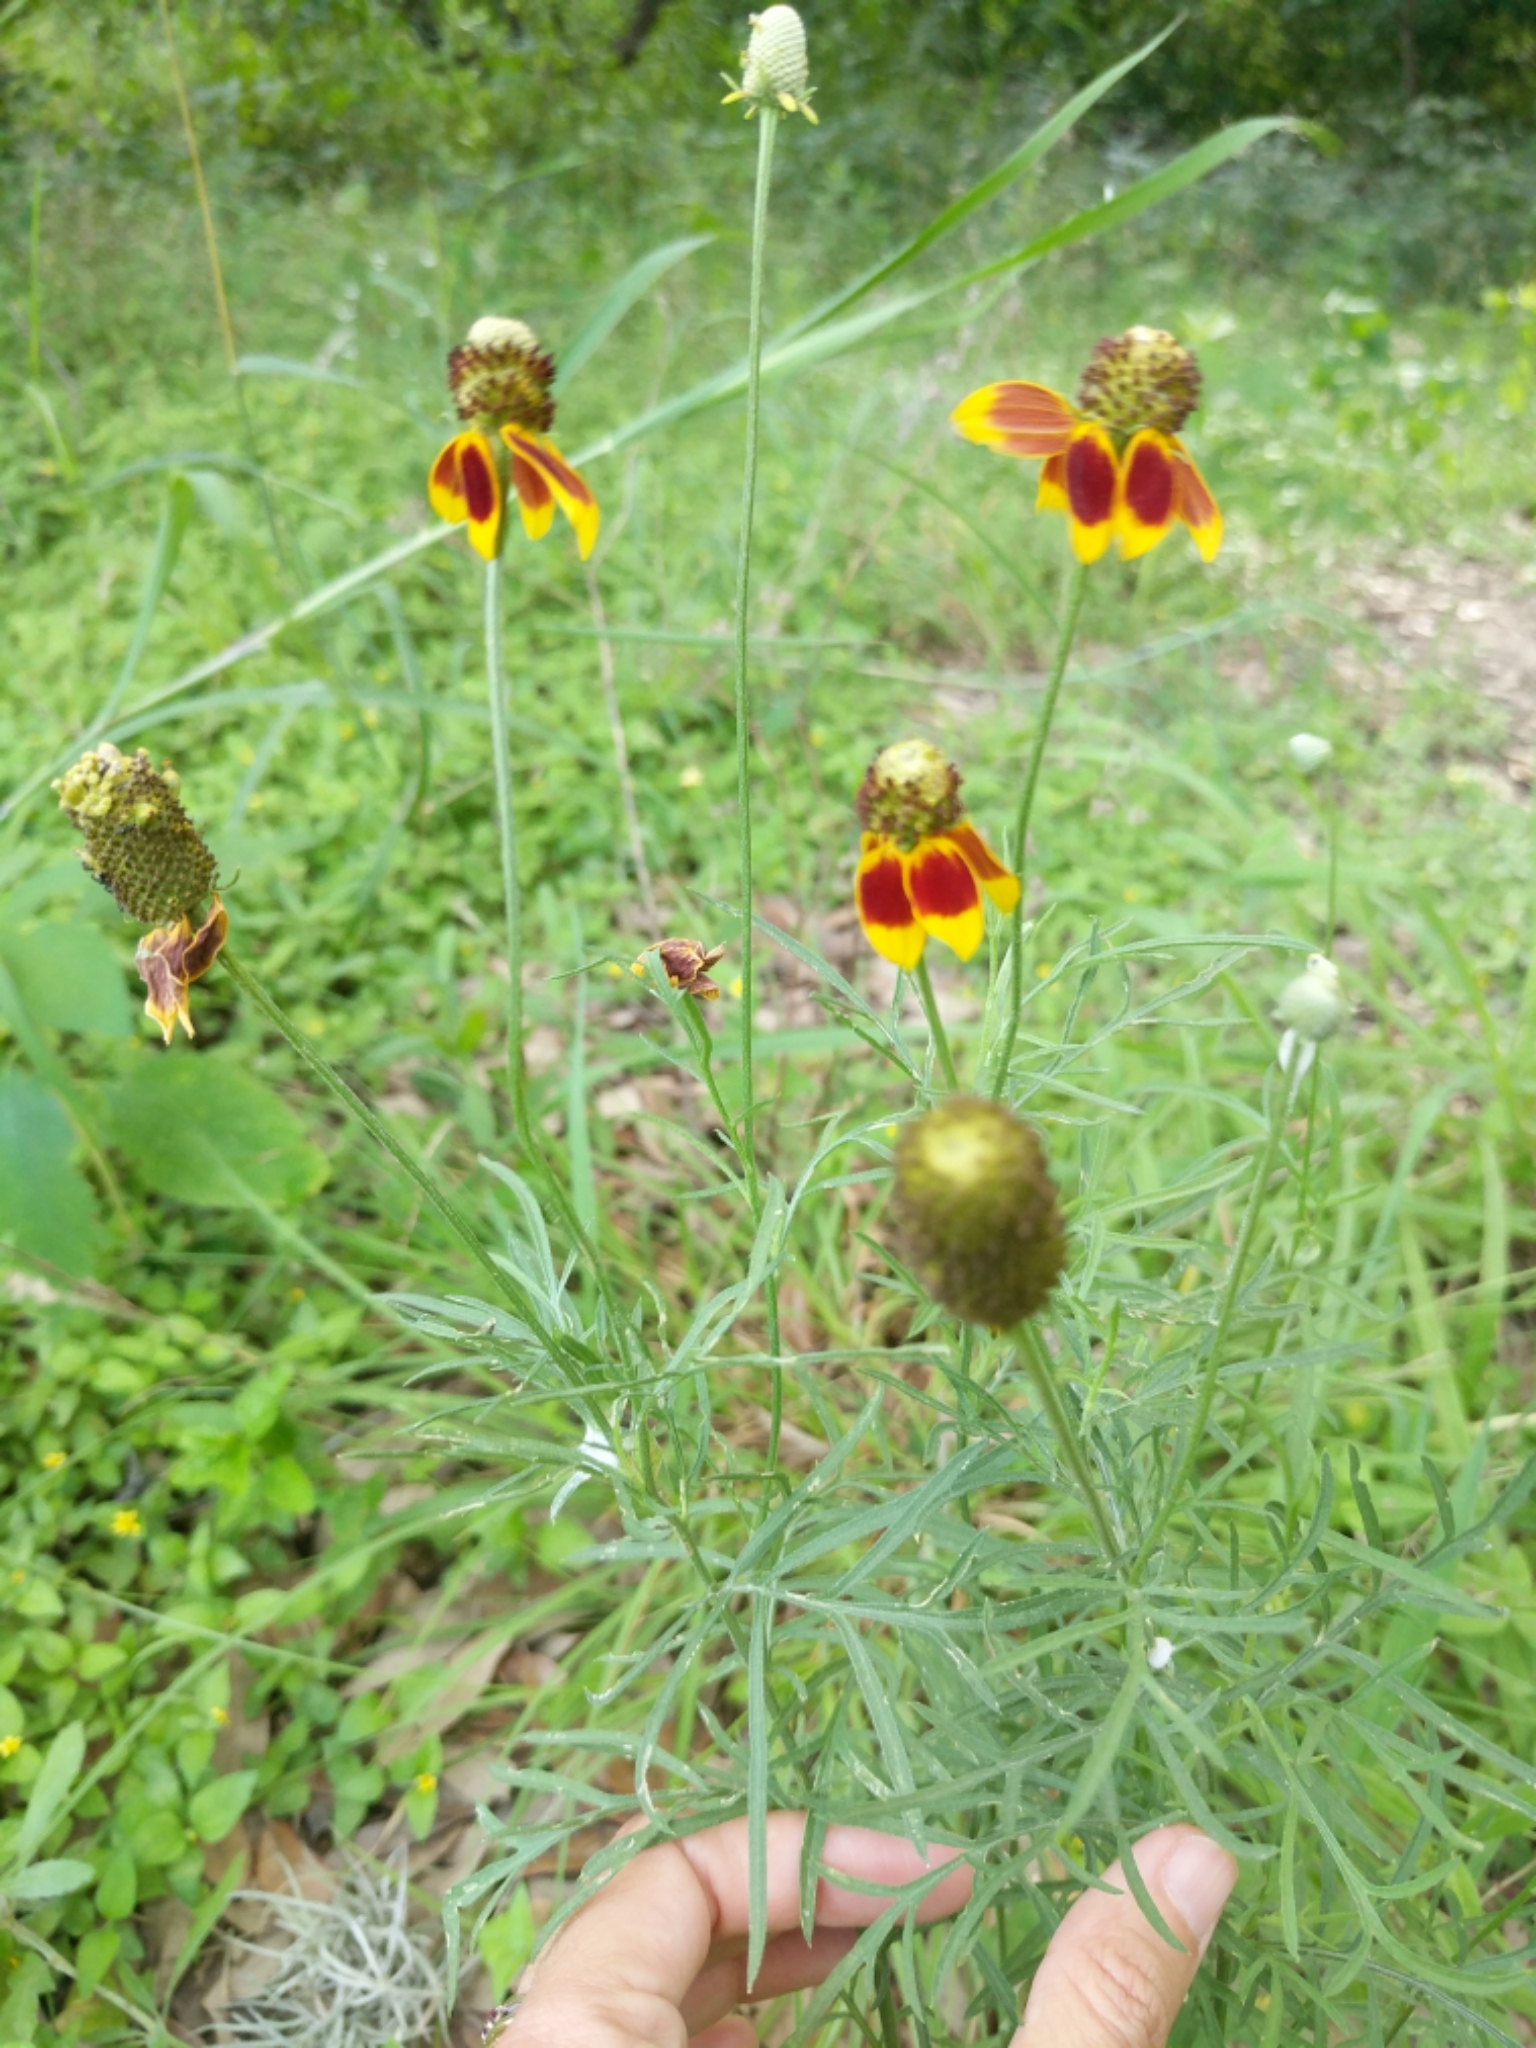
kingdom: Plantae
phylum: Tracheophyta
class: Magnoliopsida
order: Asterales
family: Asteraceae
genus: Ratibida
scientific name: Ratibida columnifera
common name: Prairie coneflower
